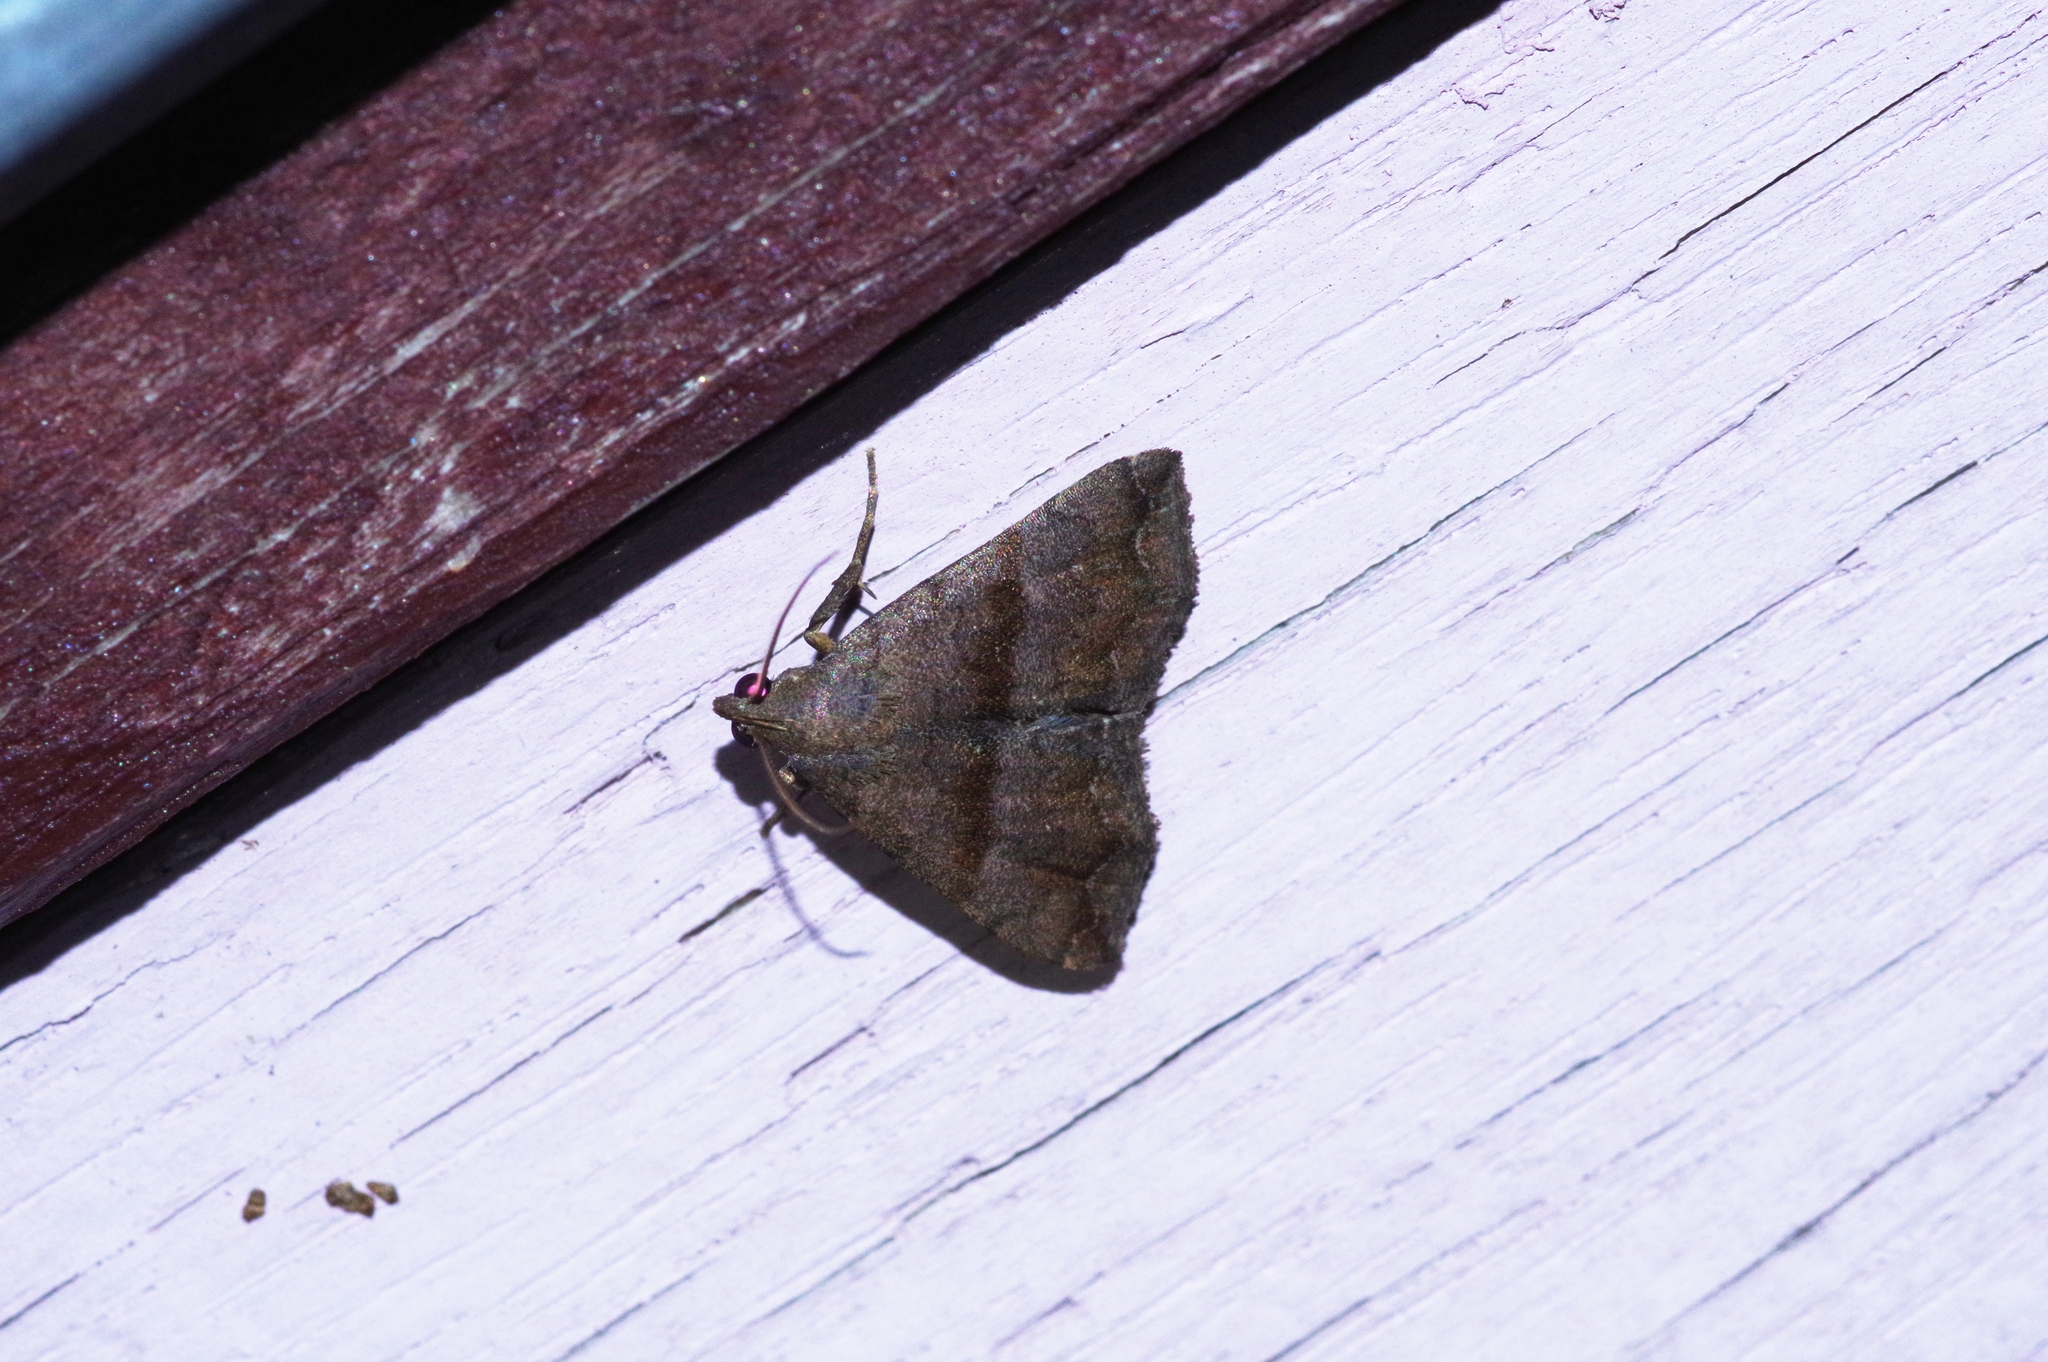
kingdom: Animalia
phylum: Arthropoda
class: Insecta
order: Lepidoptera
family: Erebidae
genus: Polypogon
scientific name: Polypogon Hipoepa fractalis
